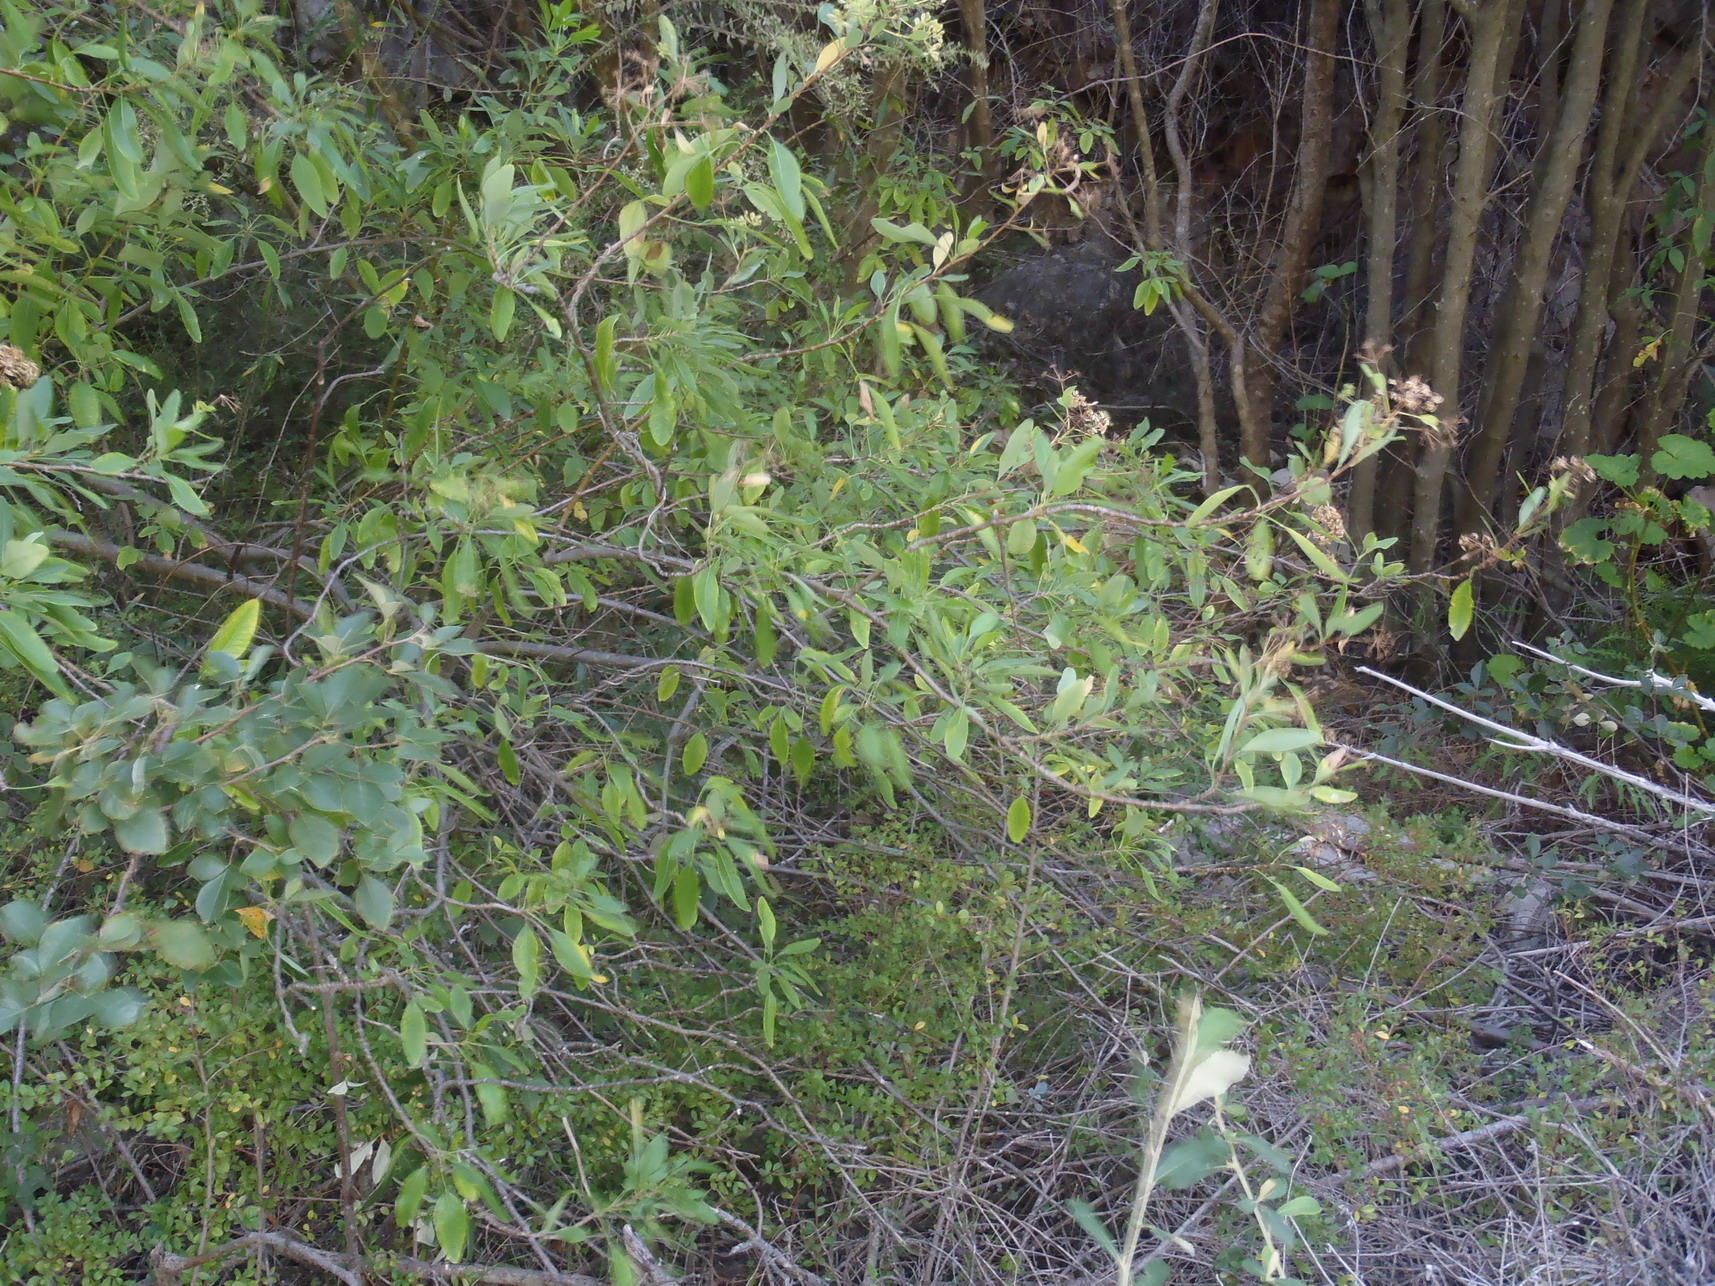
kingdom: Plantae
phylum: Tracheophyta
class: Magnoliopsida
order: Apiales
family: Apiaceae
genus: Heteromorpha
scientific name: Heteromorpha arborescens
